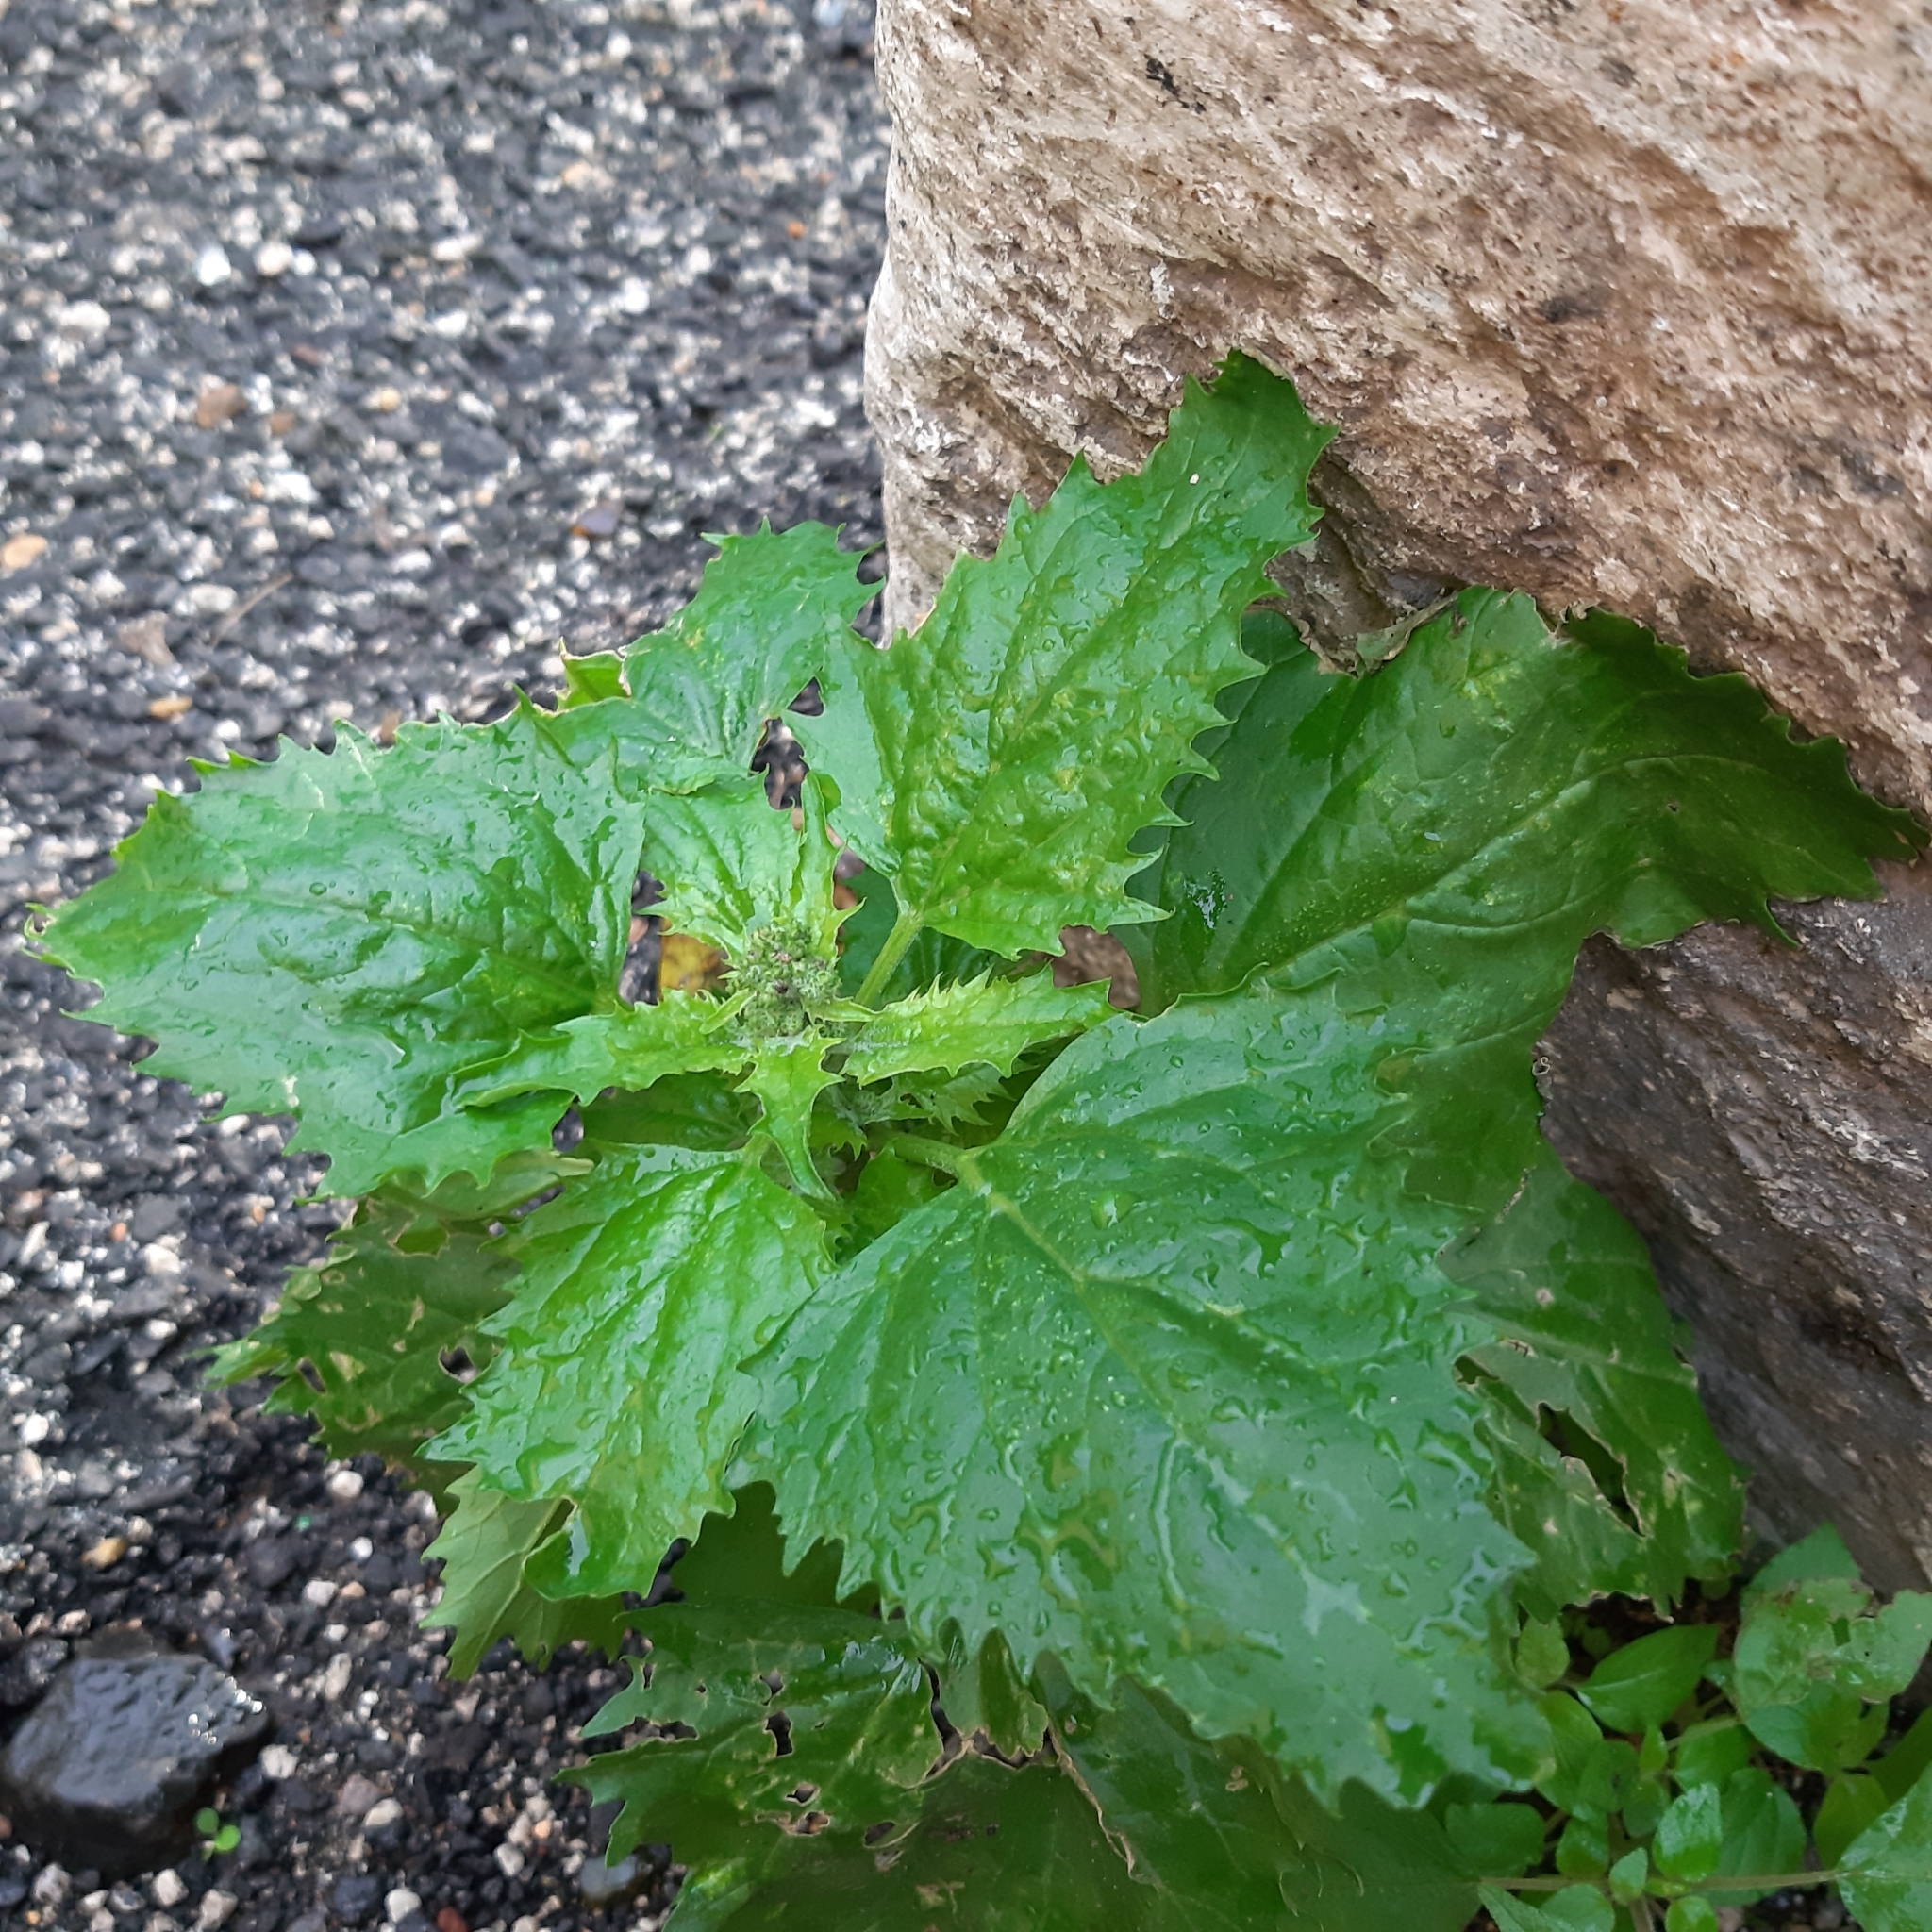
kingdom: Plantae
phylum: Tracheophyta
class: Magnoliopsida
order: Caryophyllales
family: Amaranthaceae
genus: Chenopodiastrum
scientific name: Chenopodiastrum murale
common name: Sowbane
